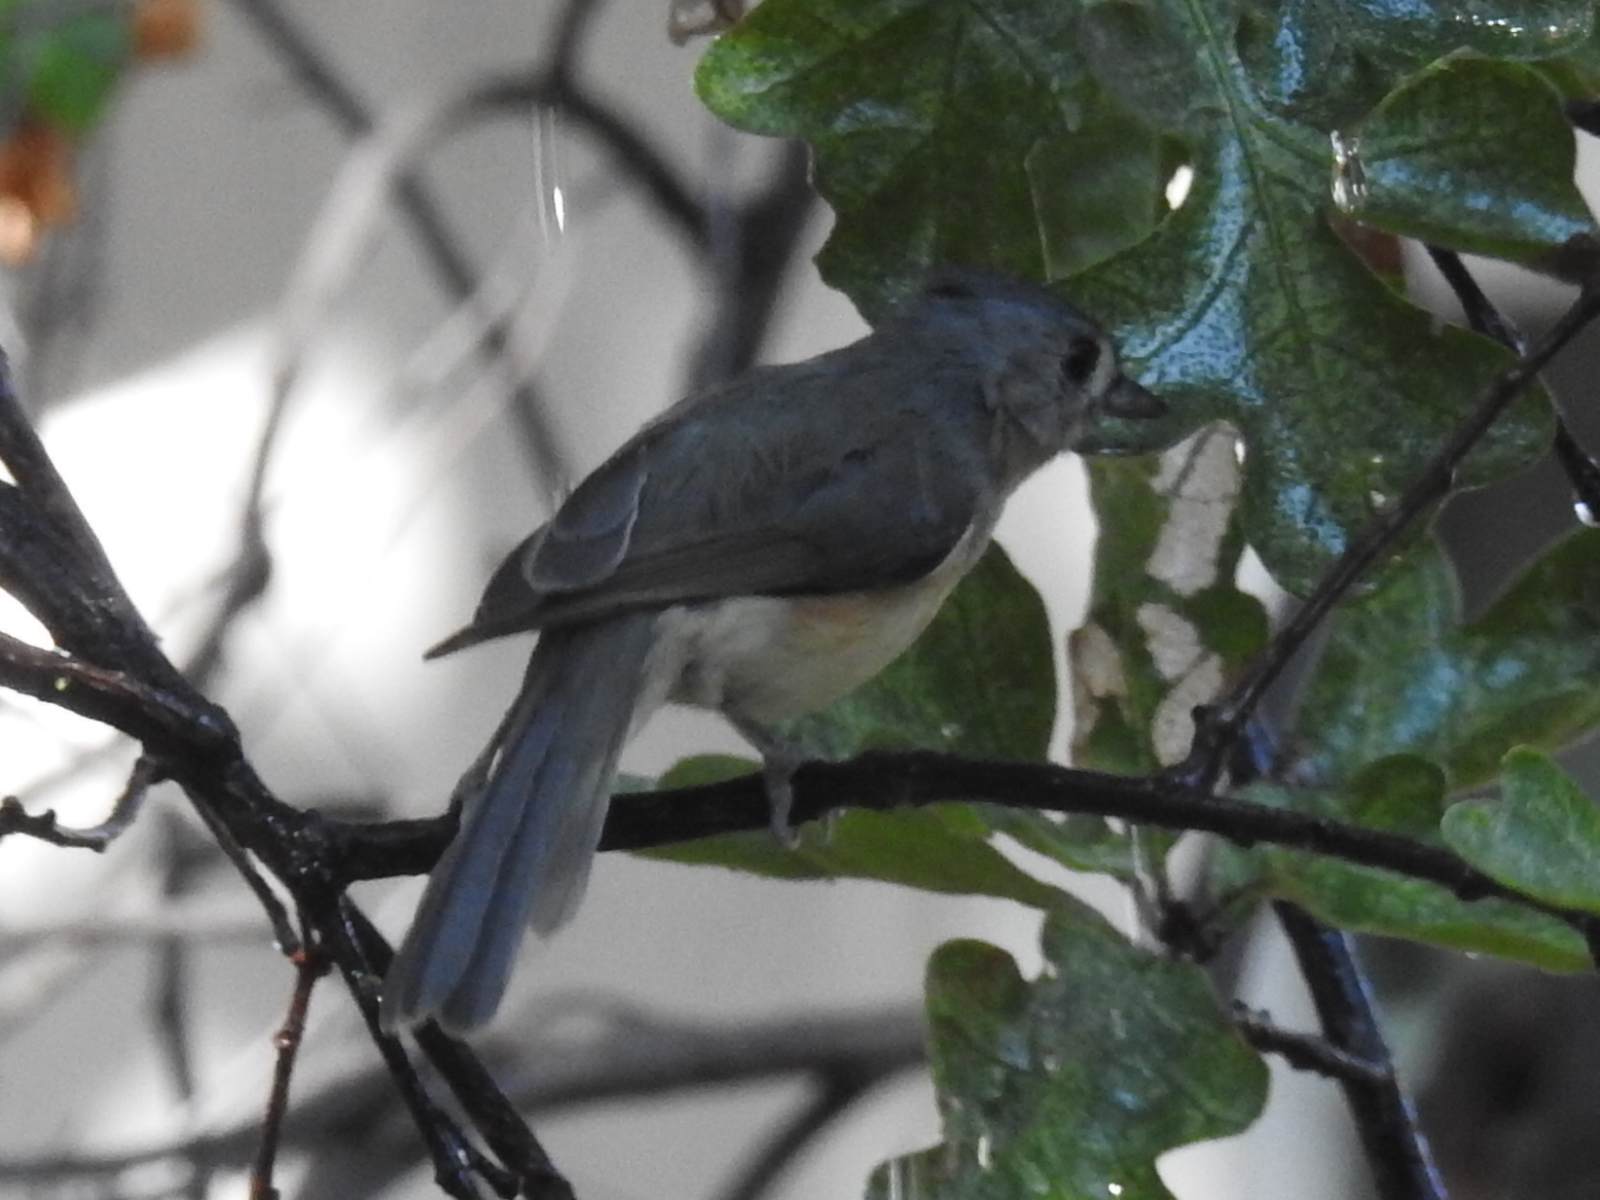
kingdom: Animalia
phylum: Chordata
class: Aves
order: Passeriformes
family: Paridae
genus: Baeolophus
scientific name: Baeolophus bicolor
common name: Tufted titmouse
